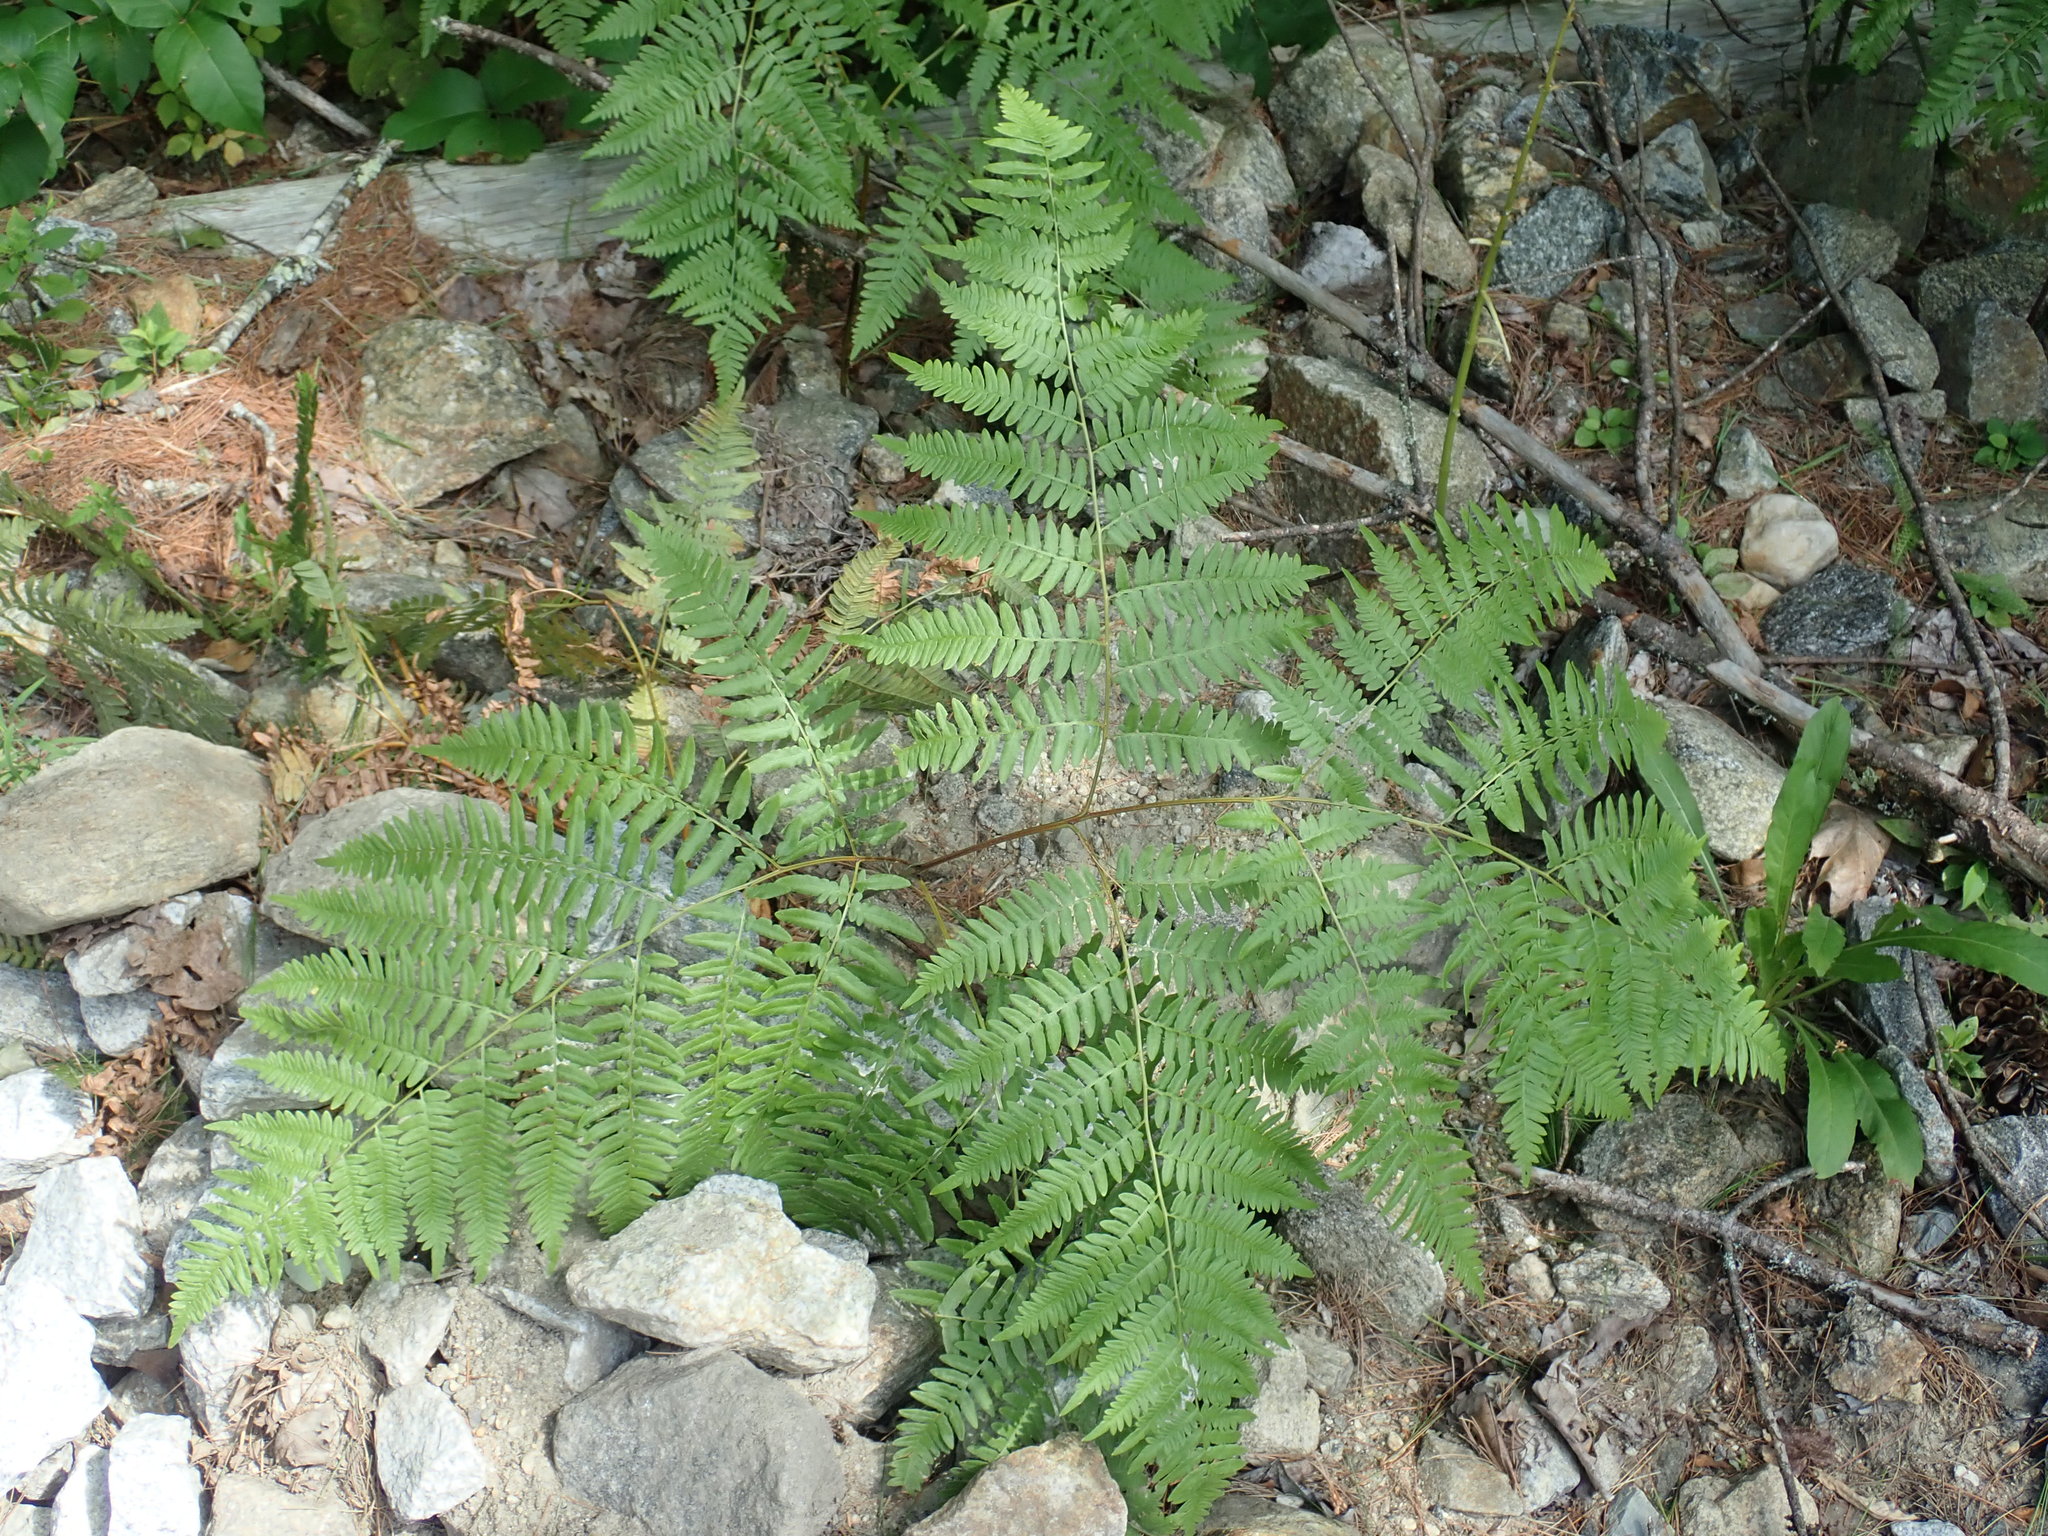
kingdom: Plantae
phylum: Tracheophyta
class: Polypodiopsida
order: Polypodiales
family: Dennstaedtiaceae
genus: Pteridium
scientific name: Pteridium aquilinum
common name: Bracken
